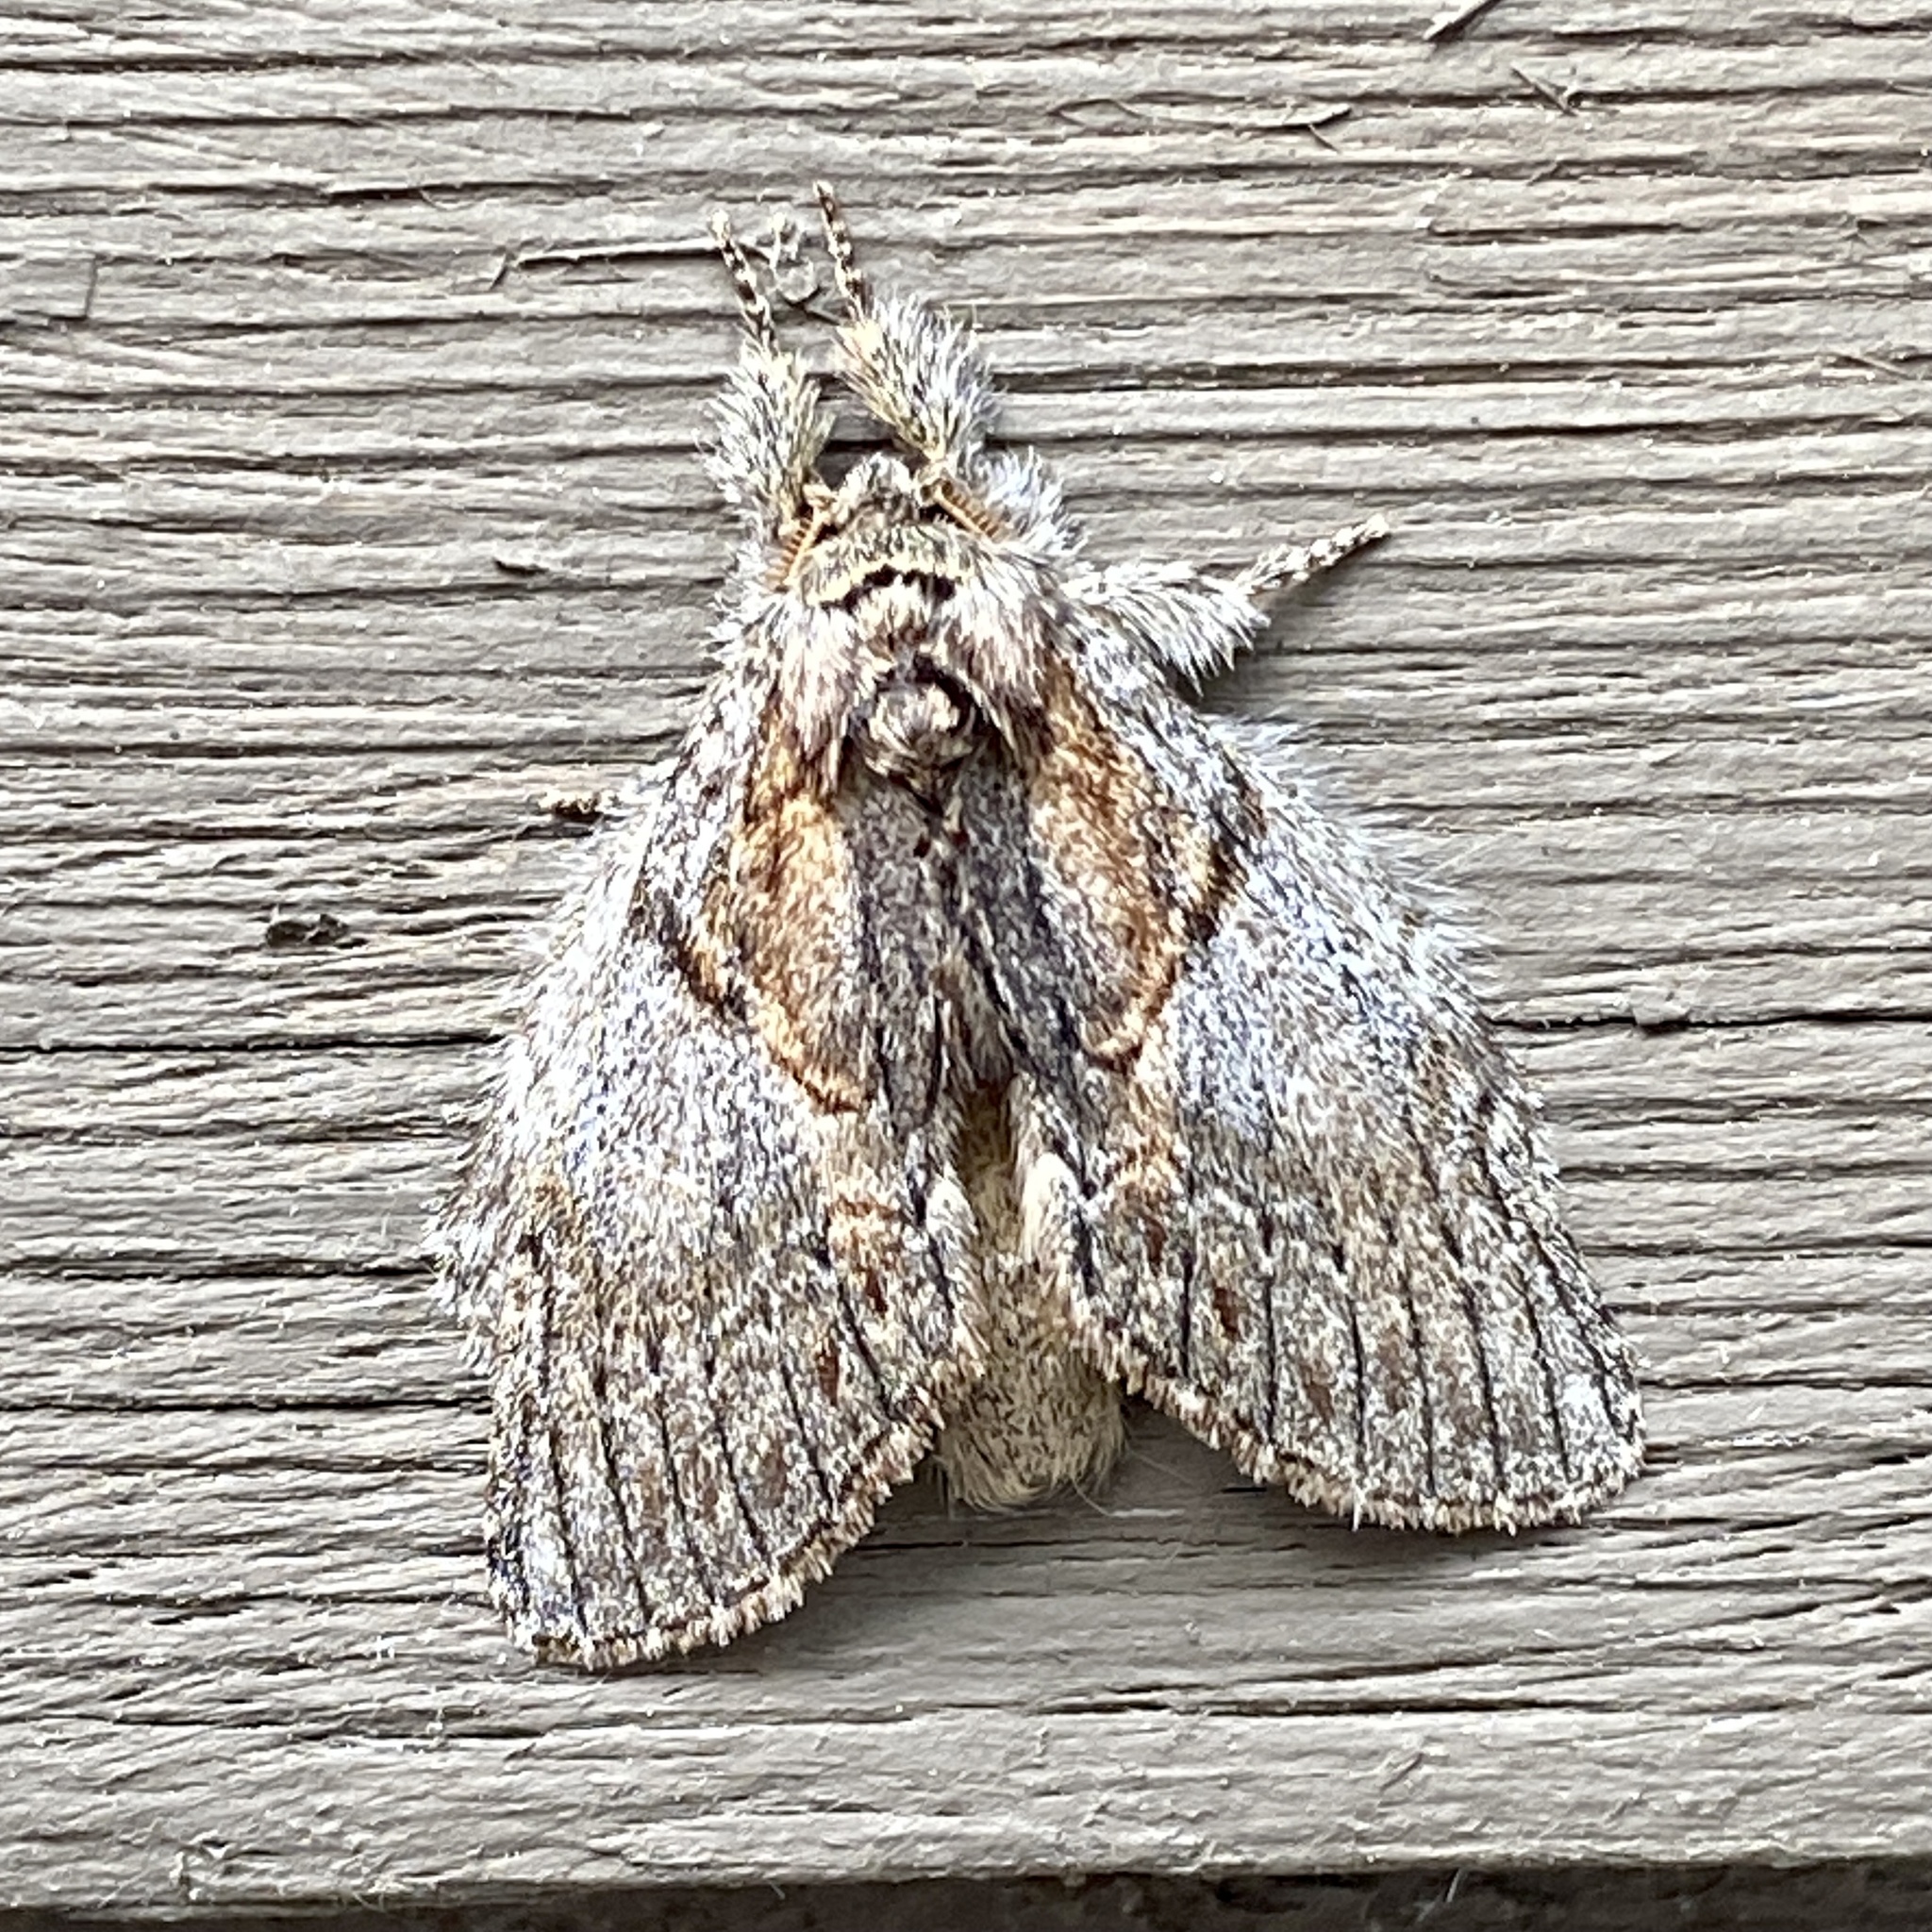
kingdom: Animalia
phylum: Arthropoda
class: Insecta
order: Lepidoptera
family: Notodontidae
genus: Peridea
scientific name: Peridea basitriens
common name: Oval-based prominent
